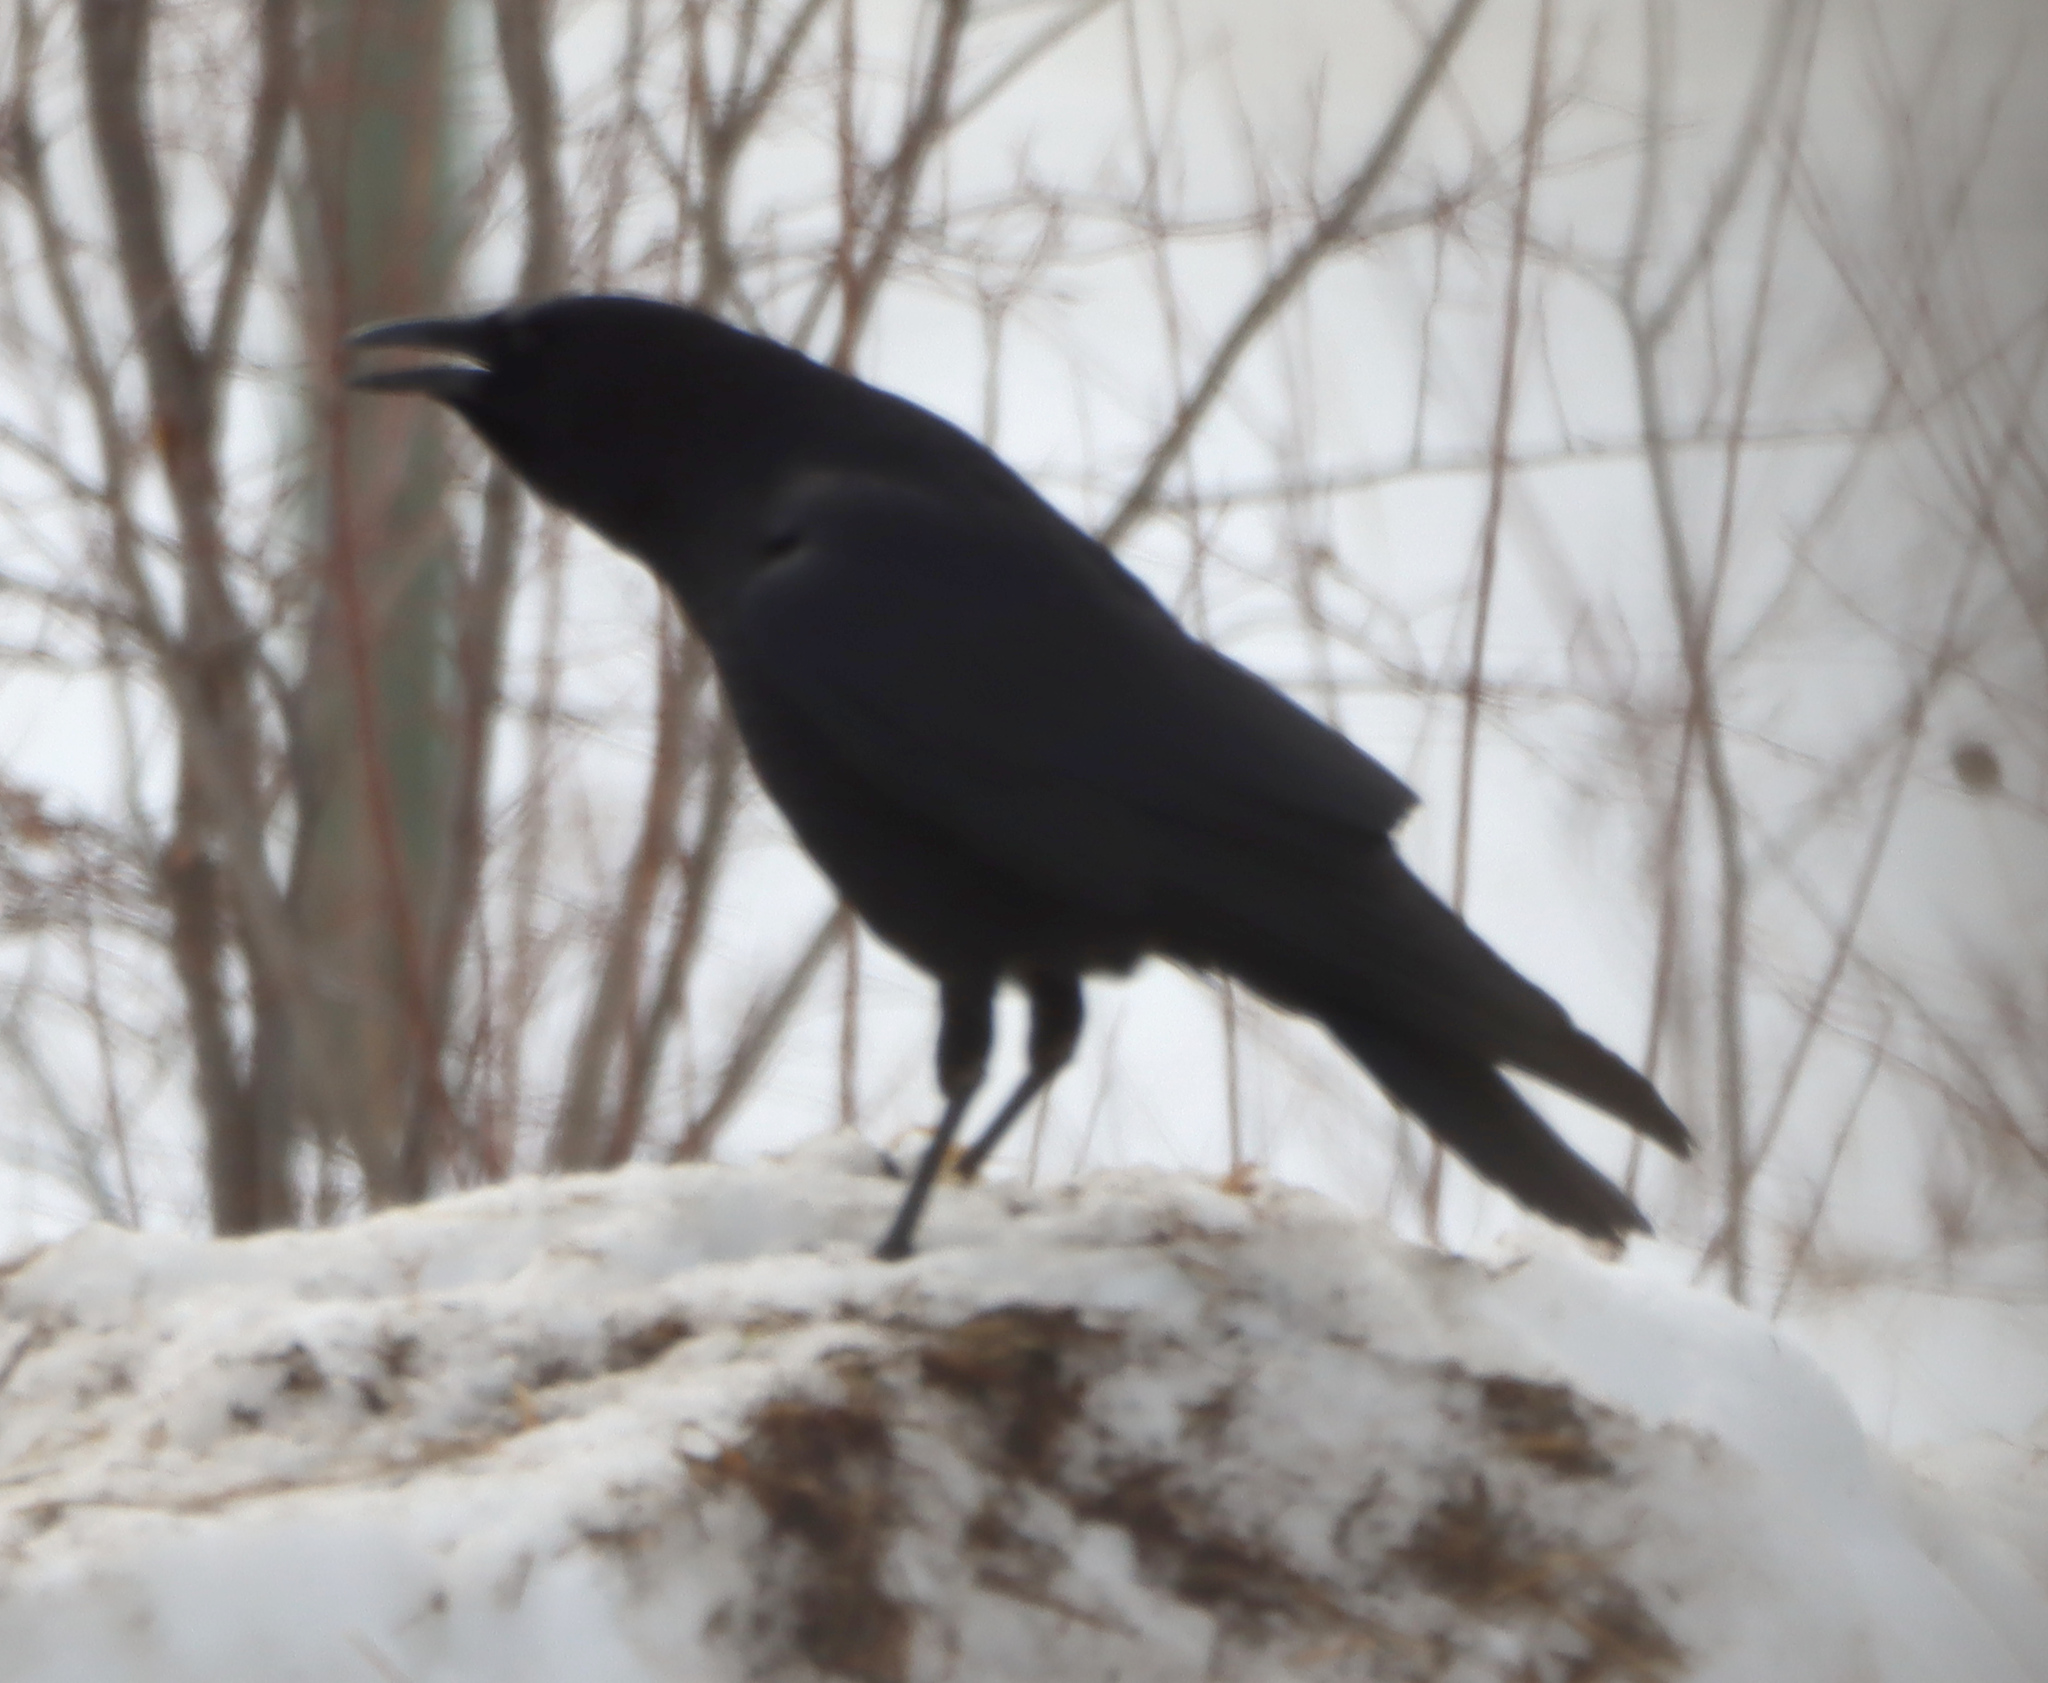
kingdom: Animalia
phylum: Chordata
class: Aves
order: Passeriformes
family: Corvidae
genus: Corvus
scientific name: Corvus corax
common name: Common raven
